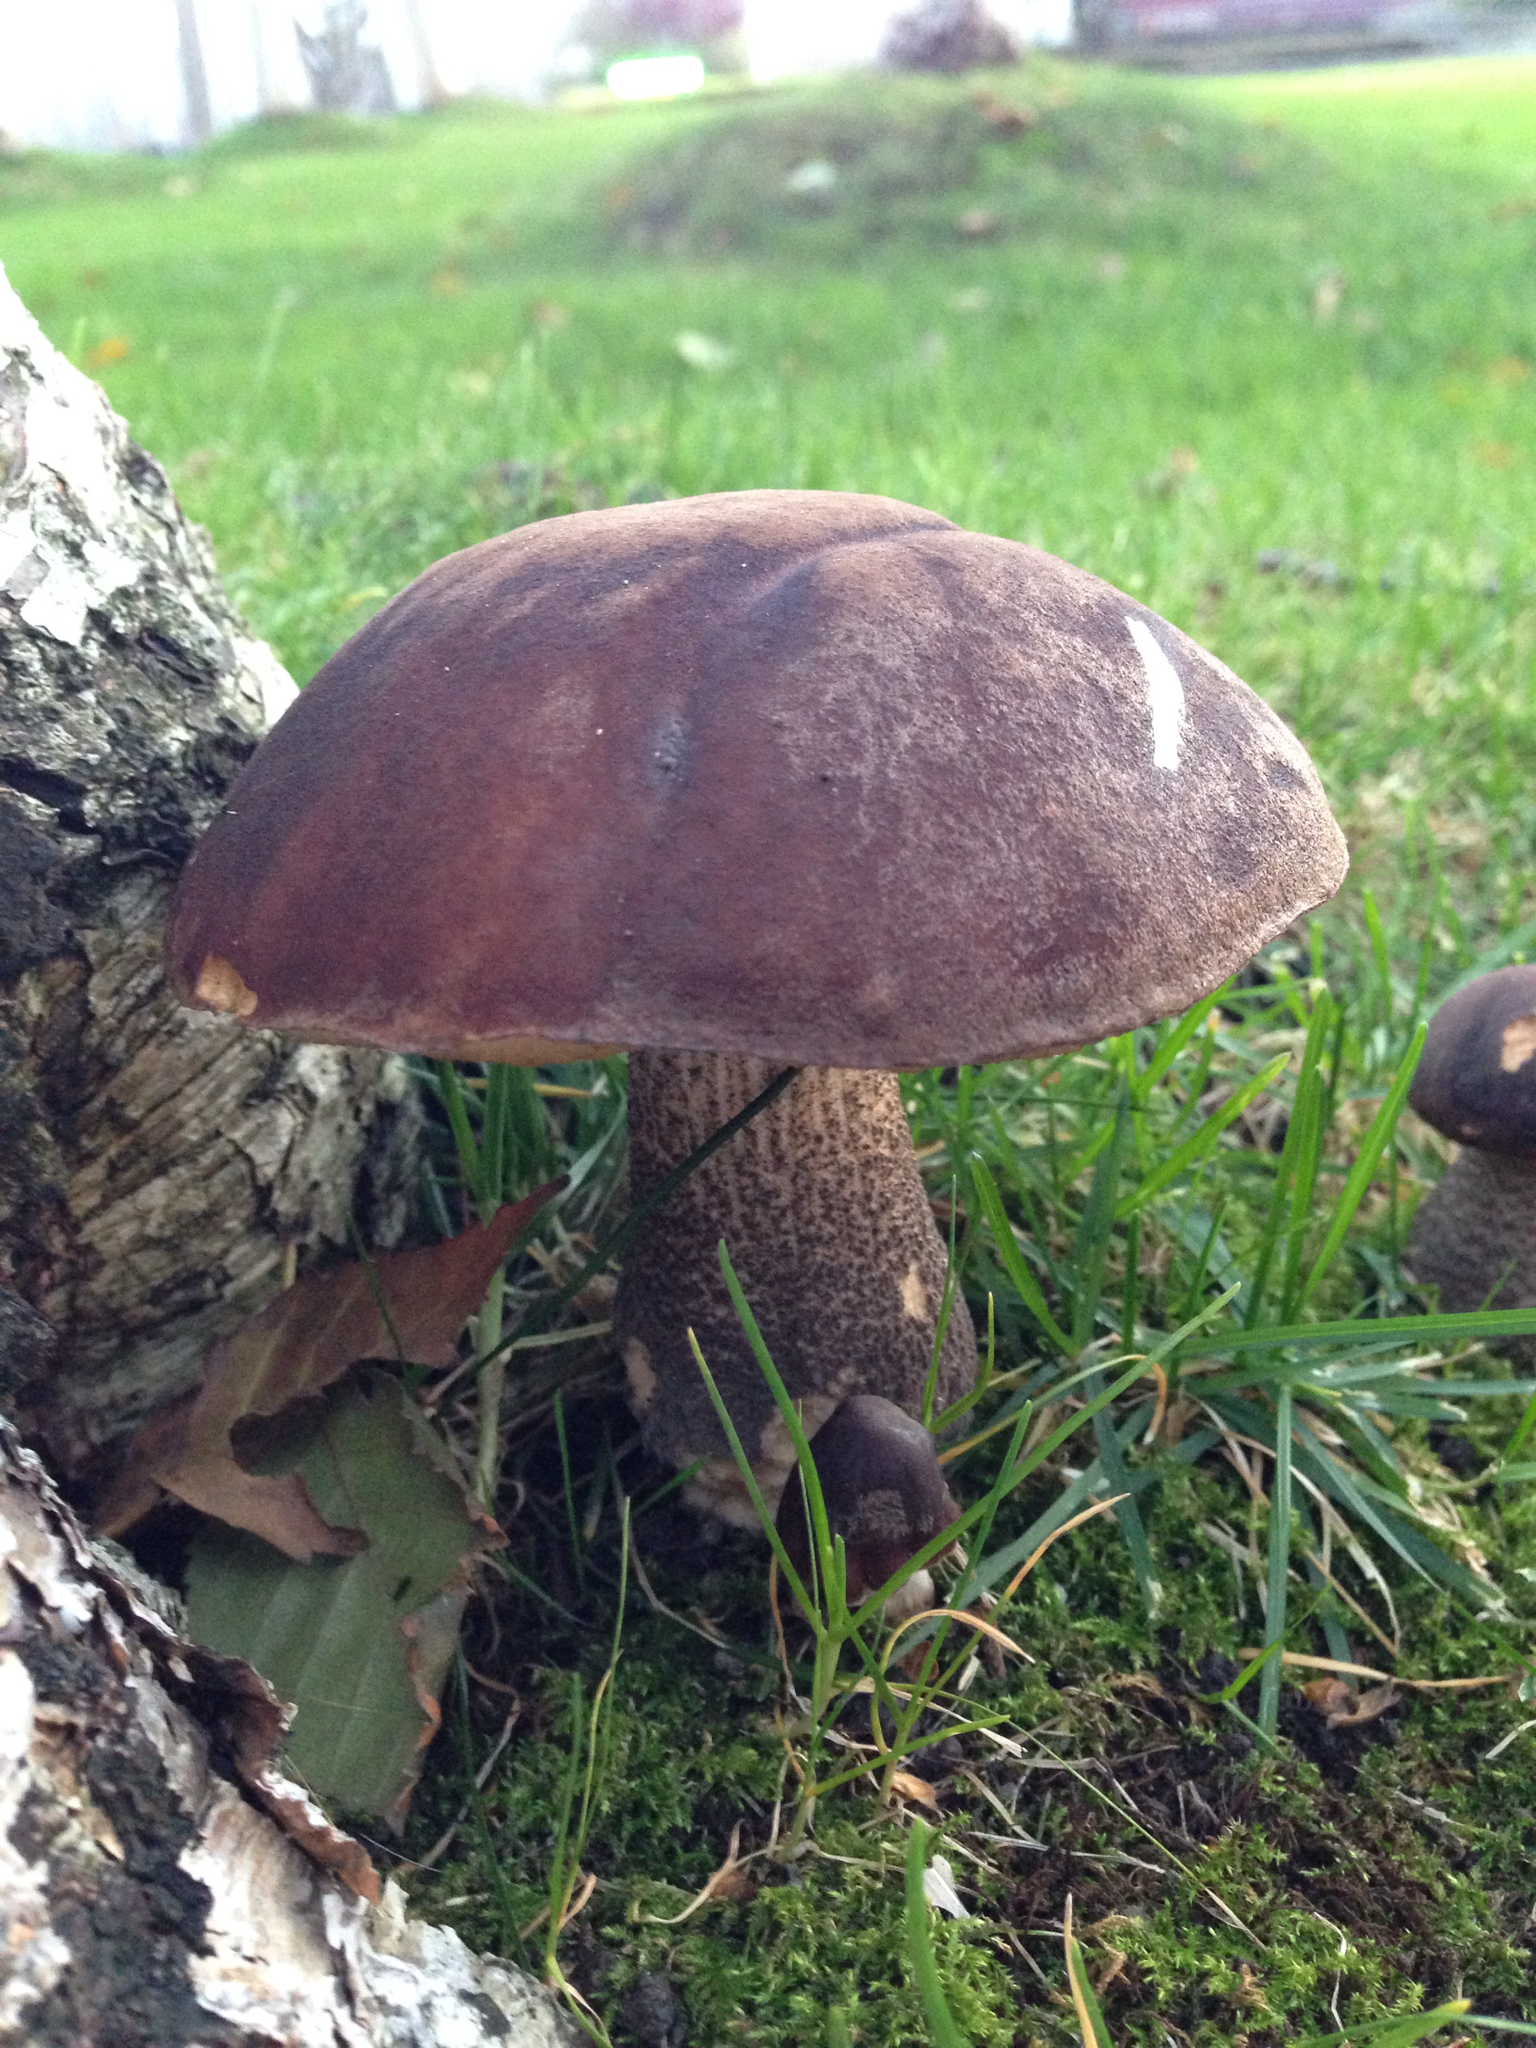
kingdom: Fungi
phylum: Basidiomycota
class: Agaricomycetes
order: Boletales
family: Boletaceae
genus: Leccinum
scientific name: Leccinum scabrum
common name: Blushing bolete
